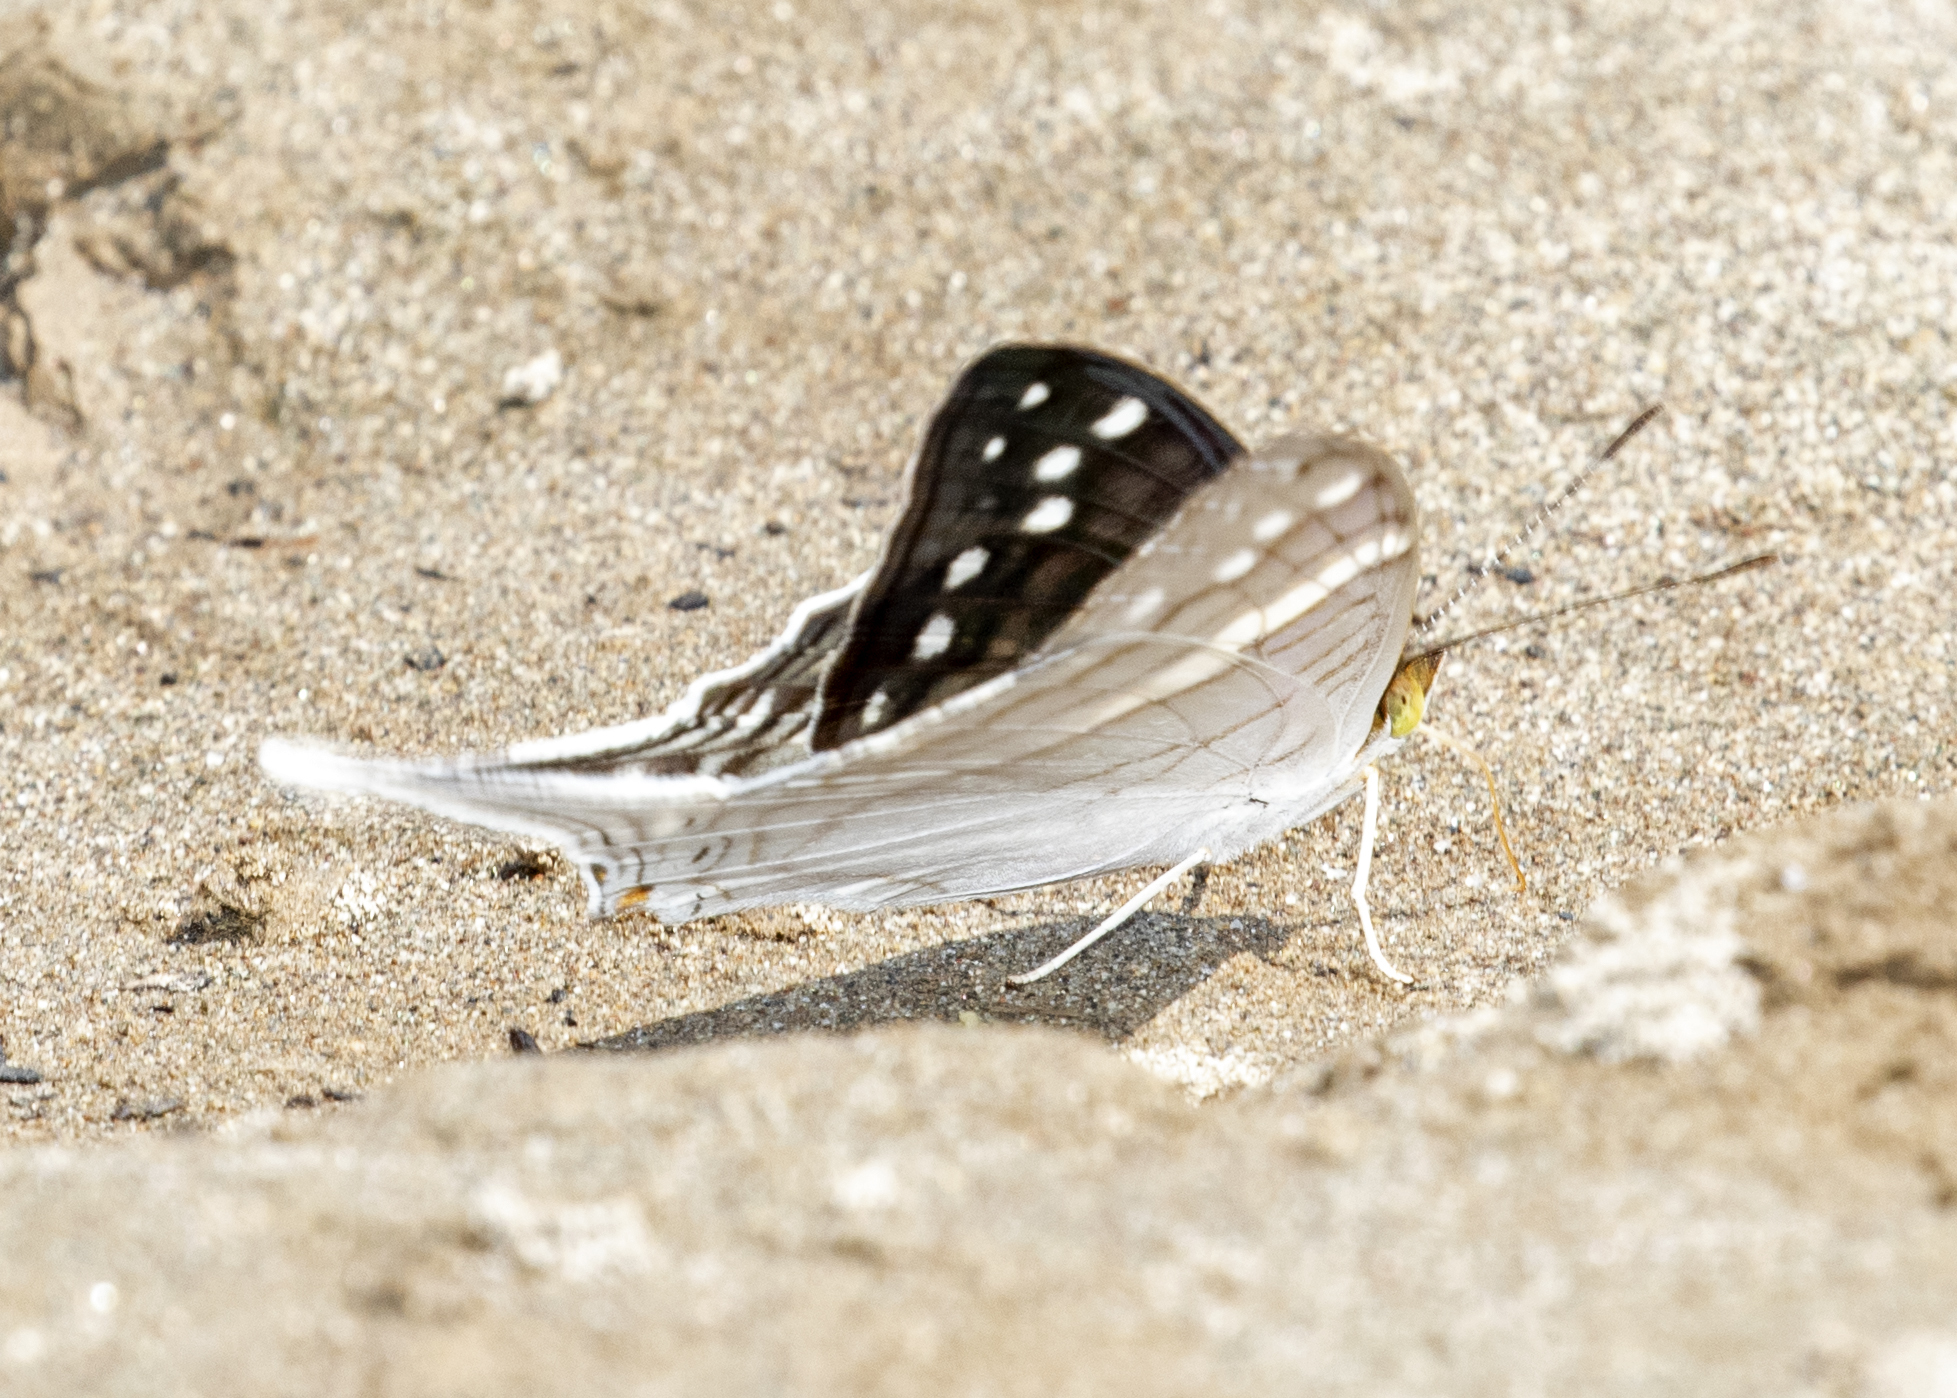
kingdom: Animalia
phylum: Arthropoda
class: Insecta
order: Lepidoptera
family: Nymphalidae
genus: Marpesia
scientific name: Marpesia crethon
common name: Crethon daggerwing
